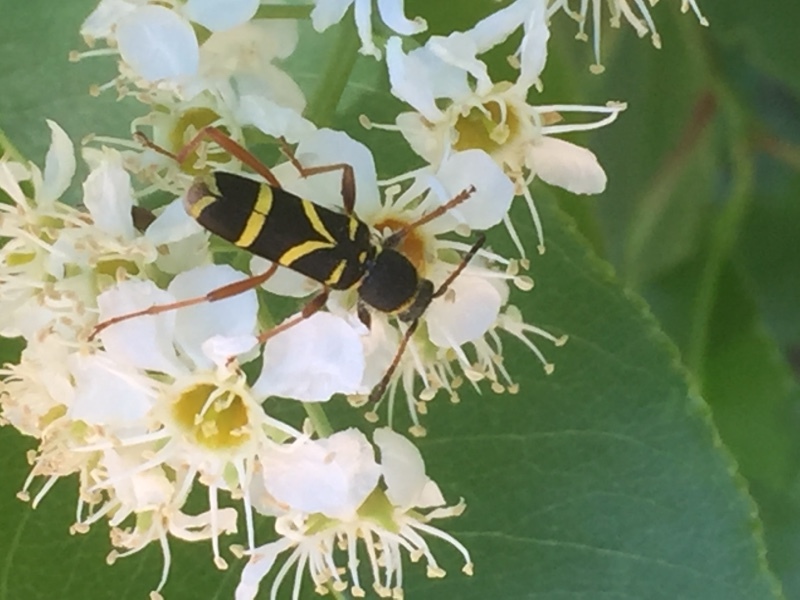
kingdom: Animalia
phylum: Arthropoda
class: Insecta
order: Coleoptera
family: Cerambycidae
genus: Clytus
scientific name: Clytus arietis
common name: Wasp beetle
